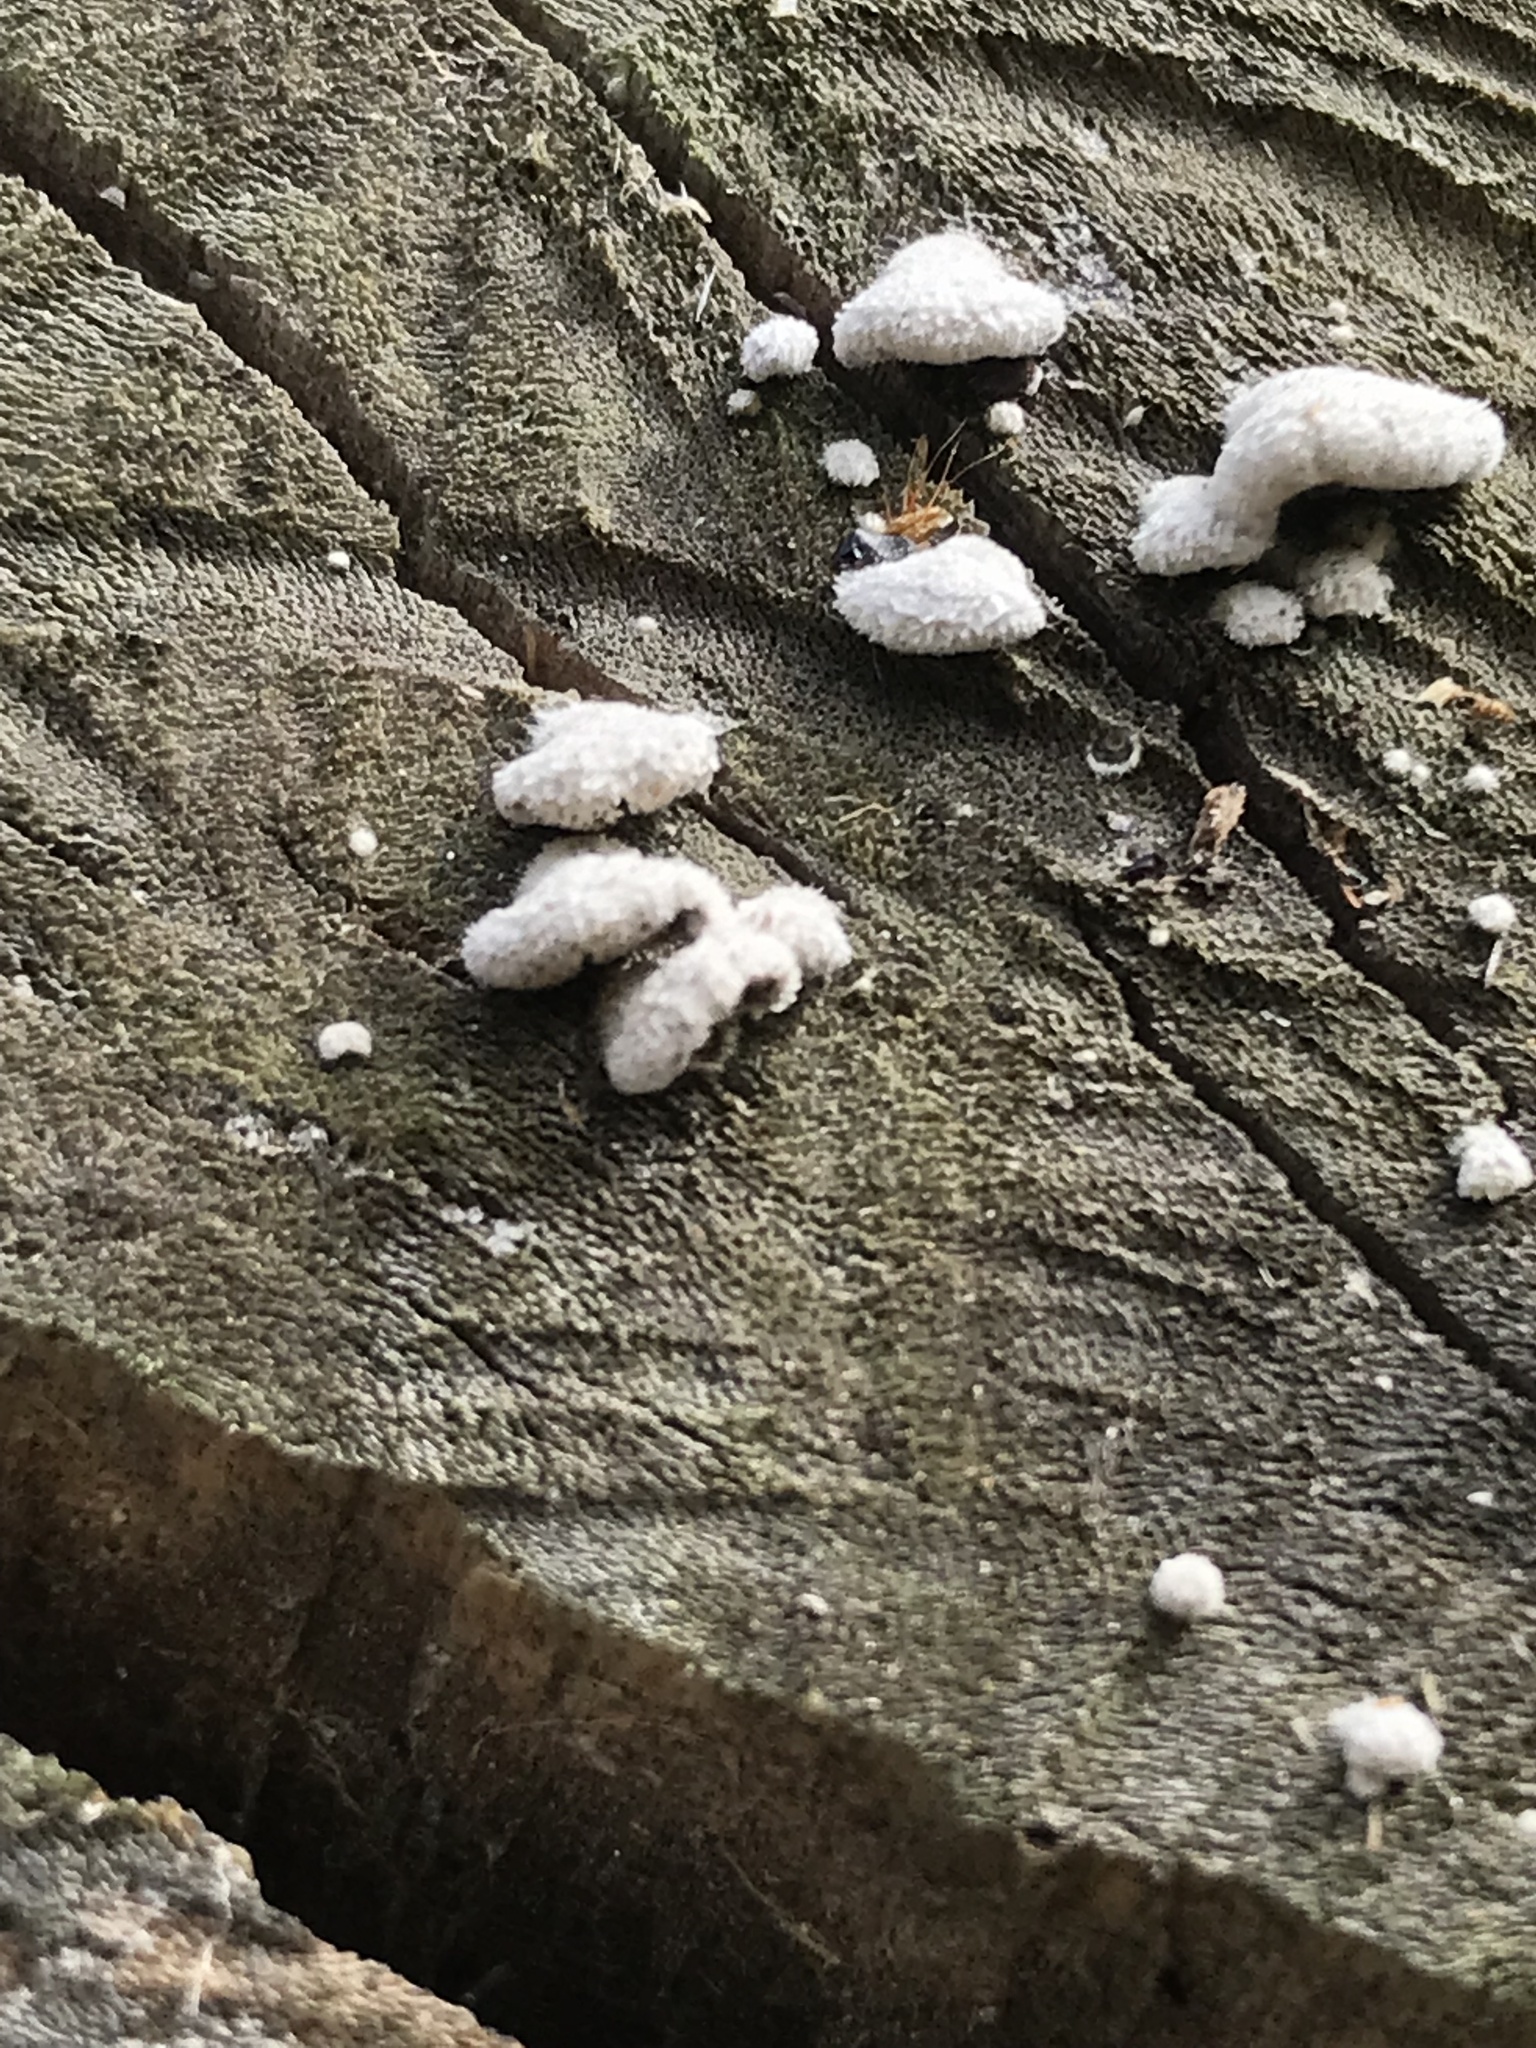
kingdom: Fungi
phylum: Basidiomycota
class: Agaricomycetes
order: Agaricales
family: Schizophyllaceae
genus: Schizophyllum
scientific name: Schizophyllum commune
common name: Common porecrust
